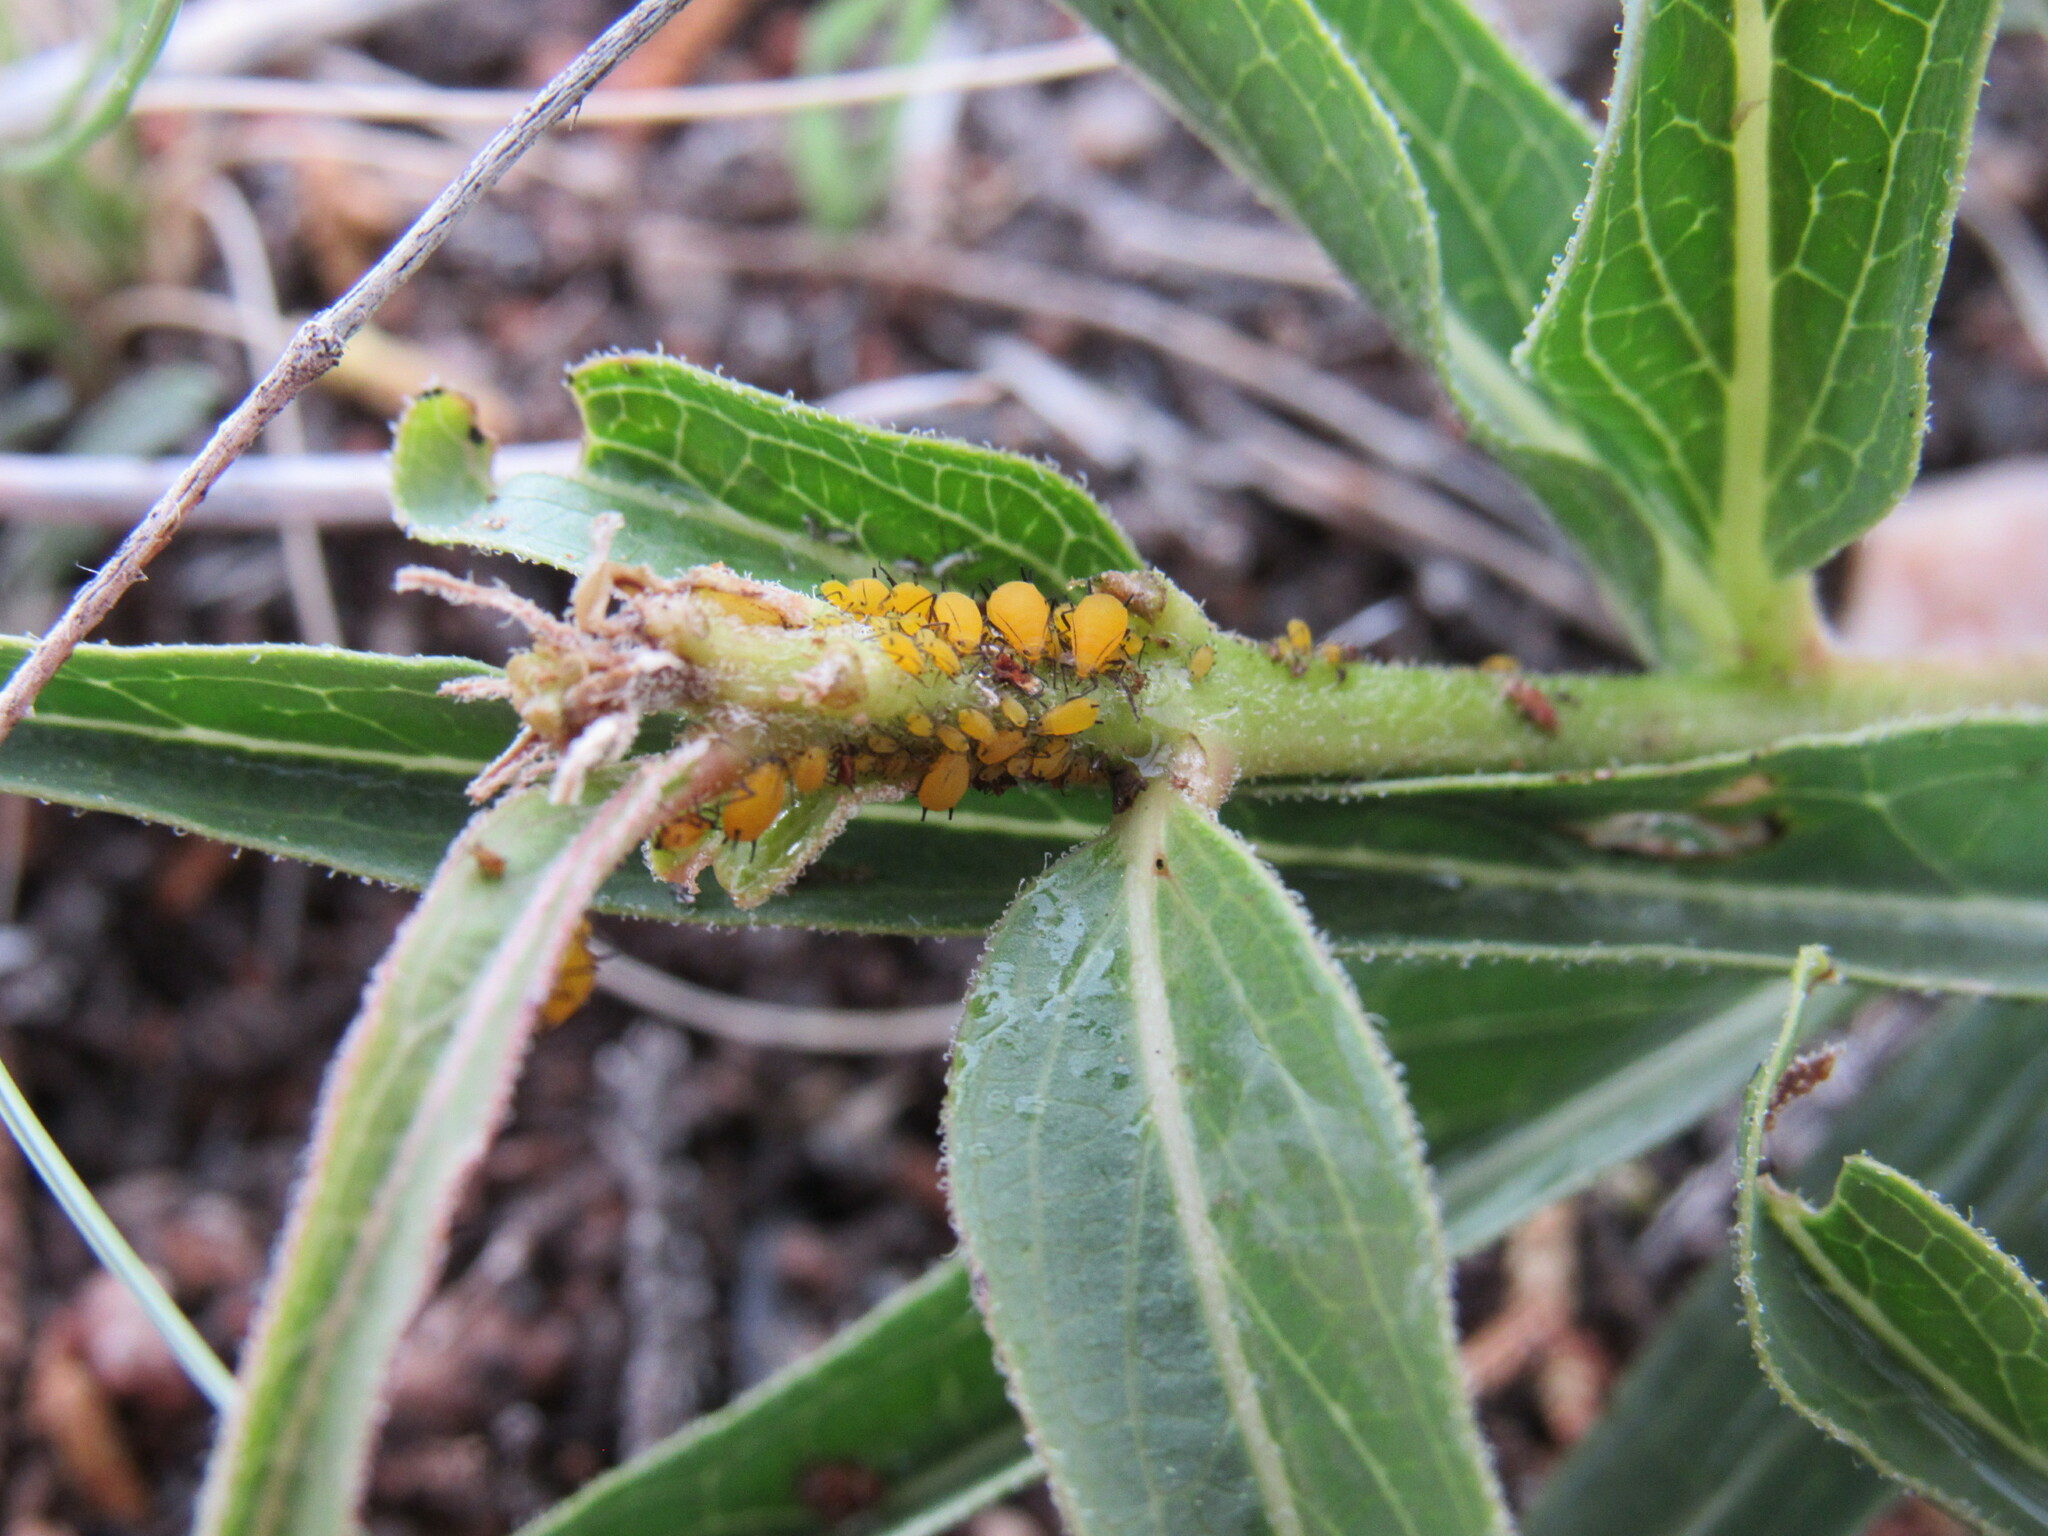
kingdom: Animalia
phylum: Arthropoda
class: Insecta
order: Hemiptera
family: Aphididae
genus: Aphis
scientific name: Aphis nerii
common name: Oleander aphid
